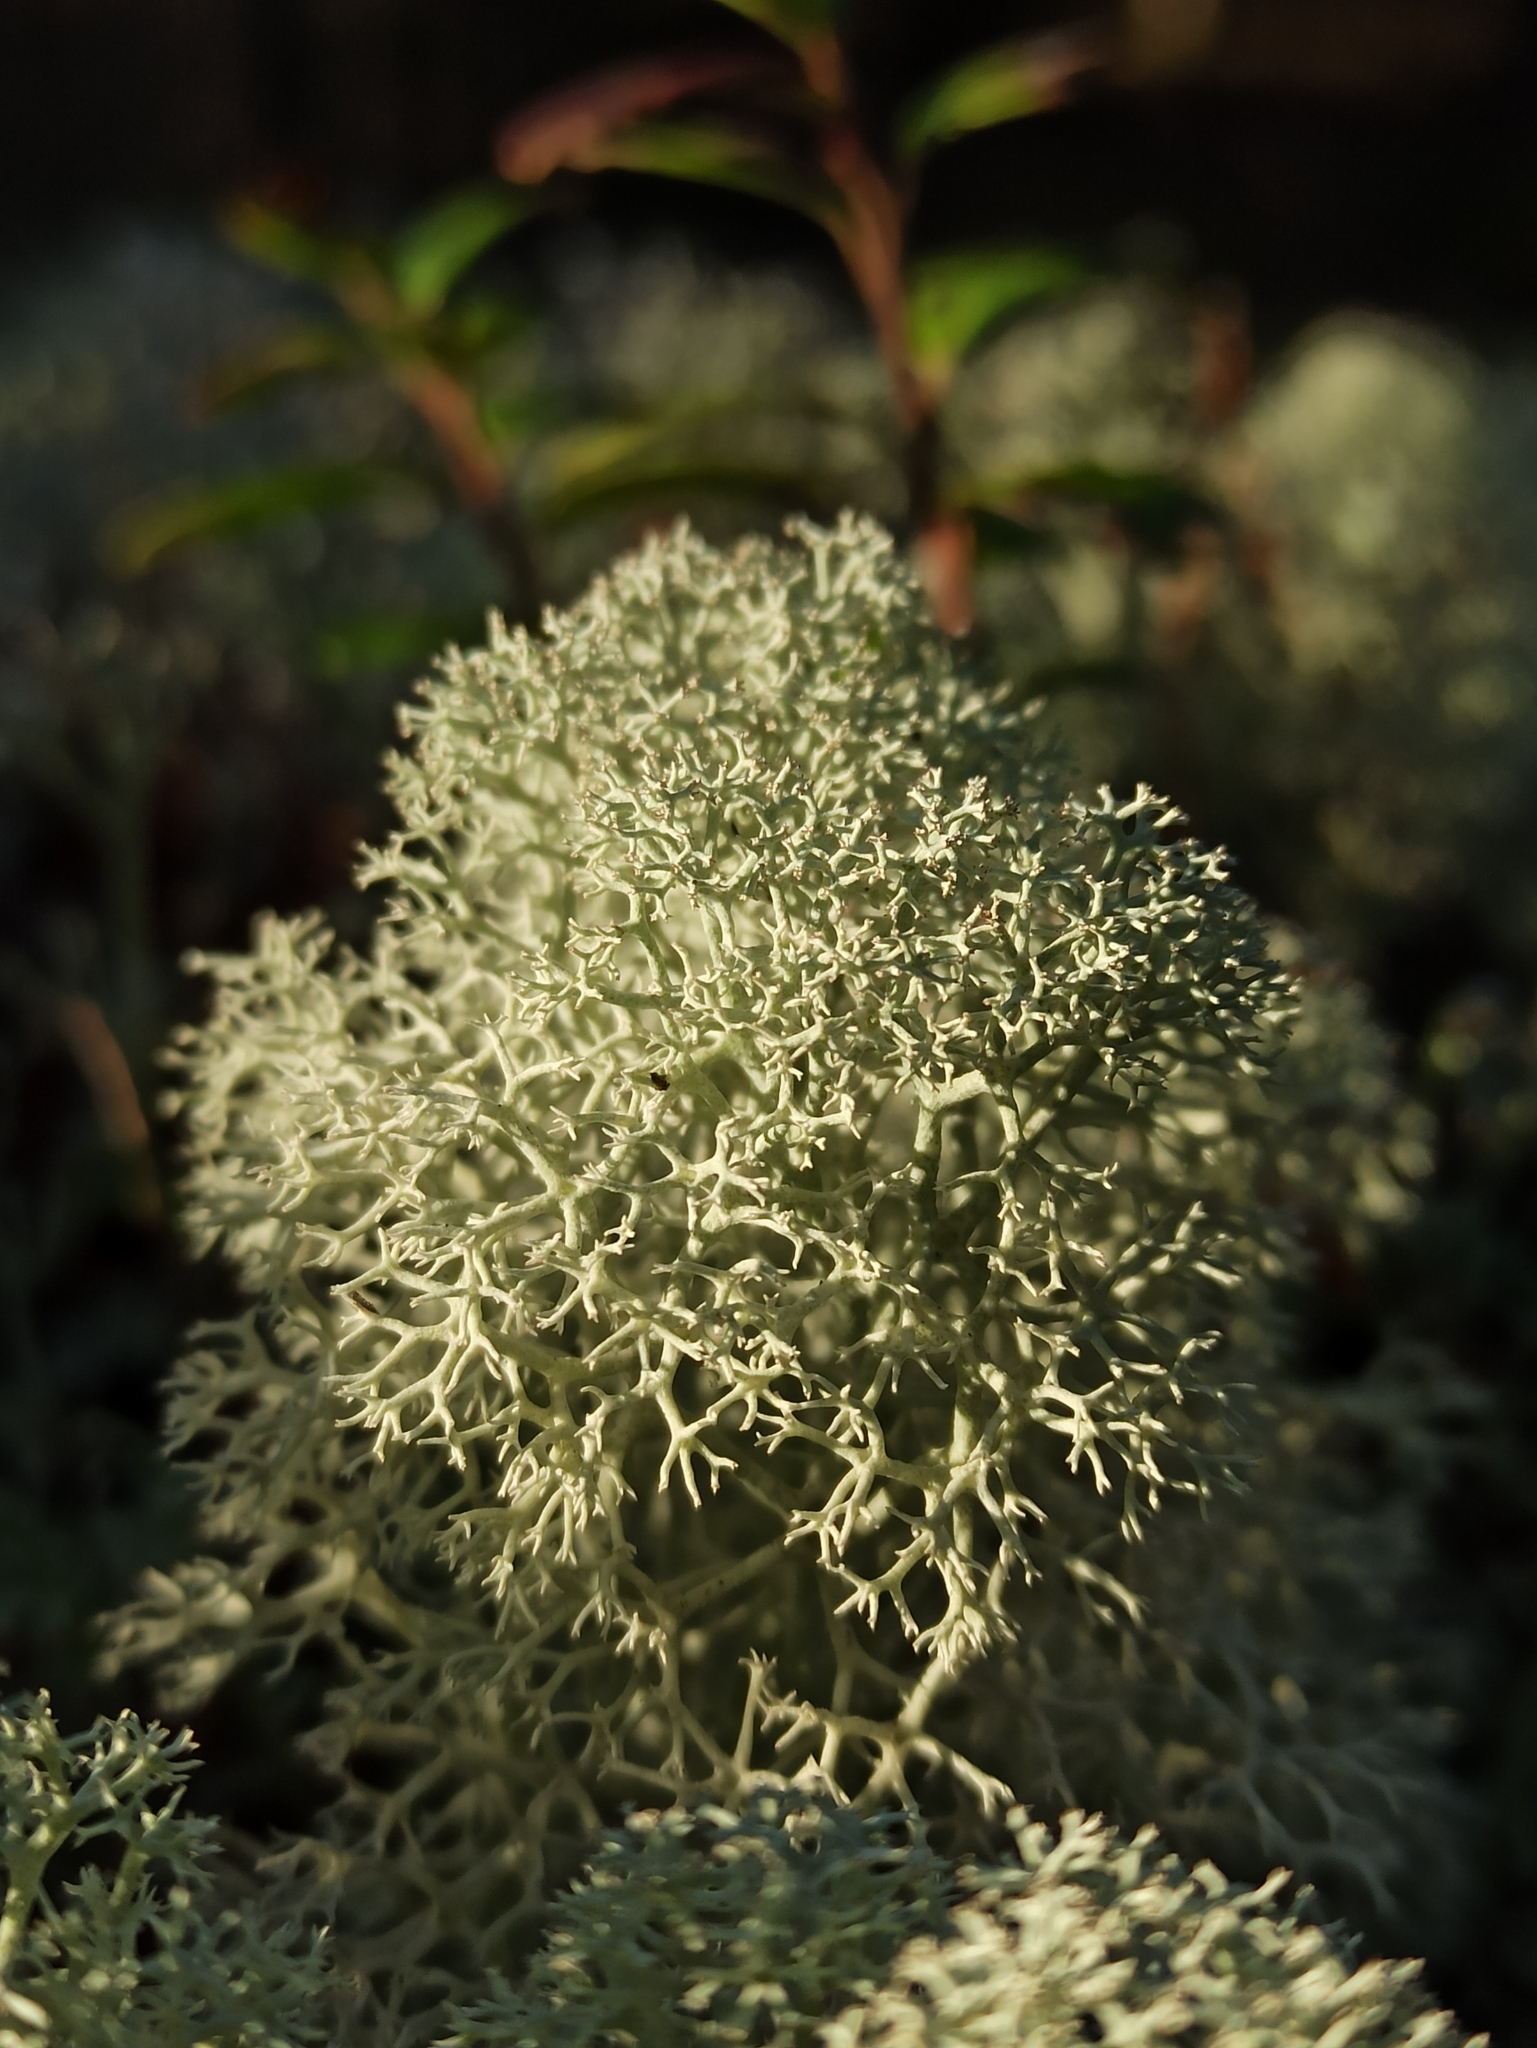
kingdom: Fungi
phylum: Ascomycota
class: Lecanoromycetes
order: Lecanorales
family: Cladoniaceae
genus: Cladonia
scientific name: Cladonia stellaris
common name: Star-tipped reindeer lichen
